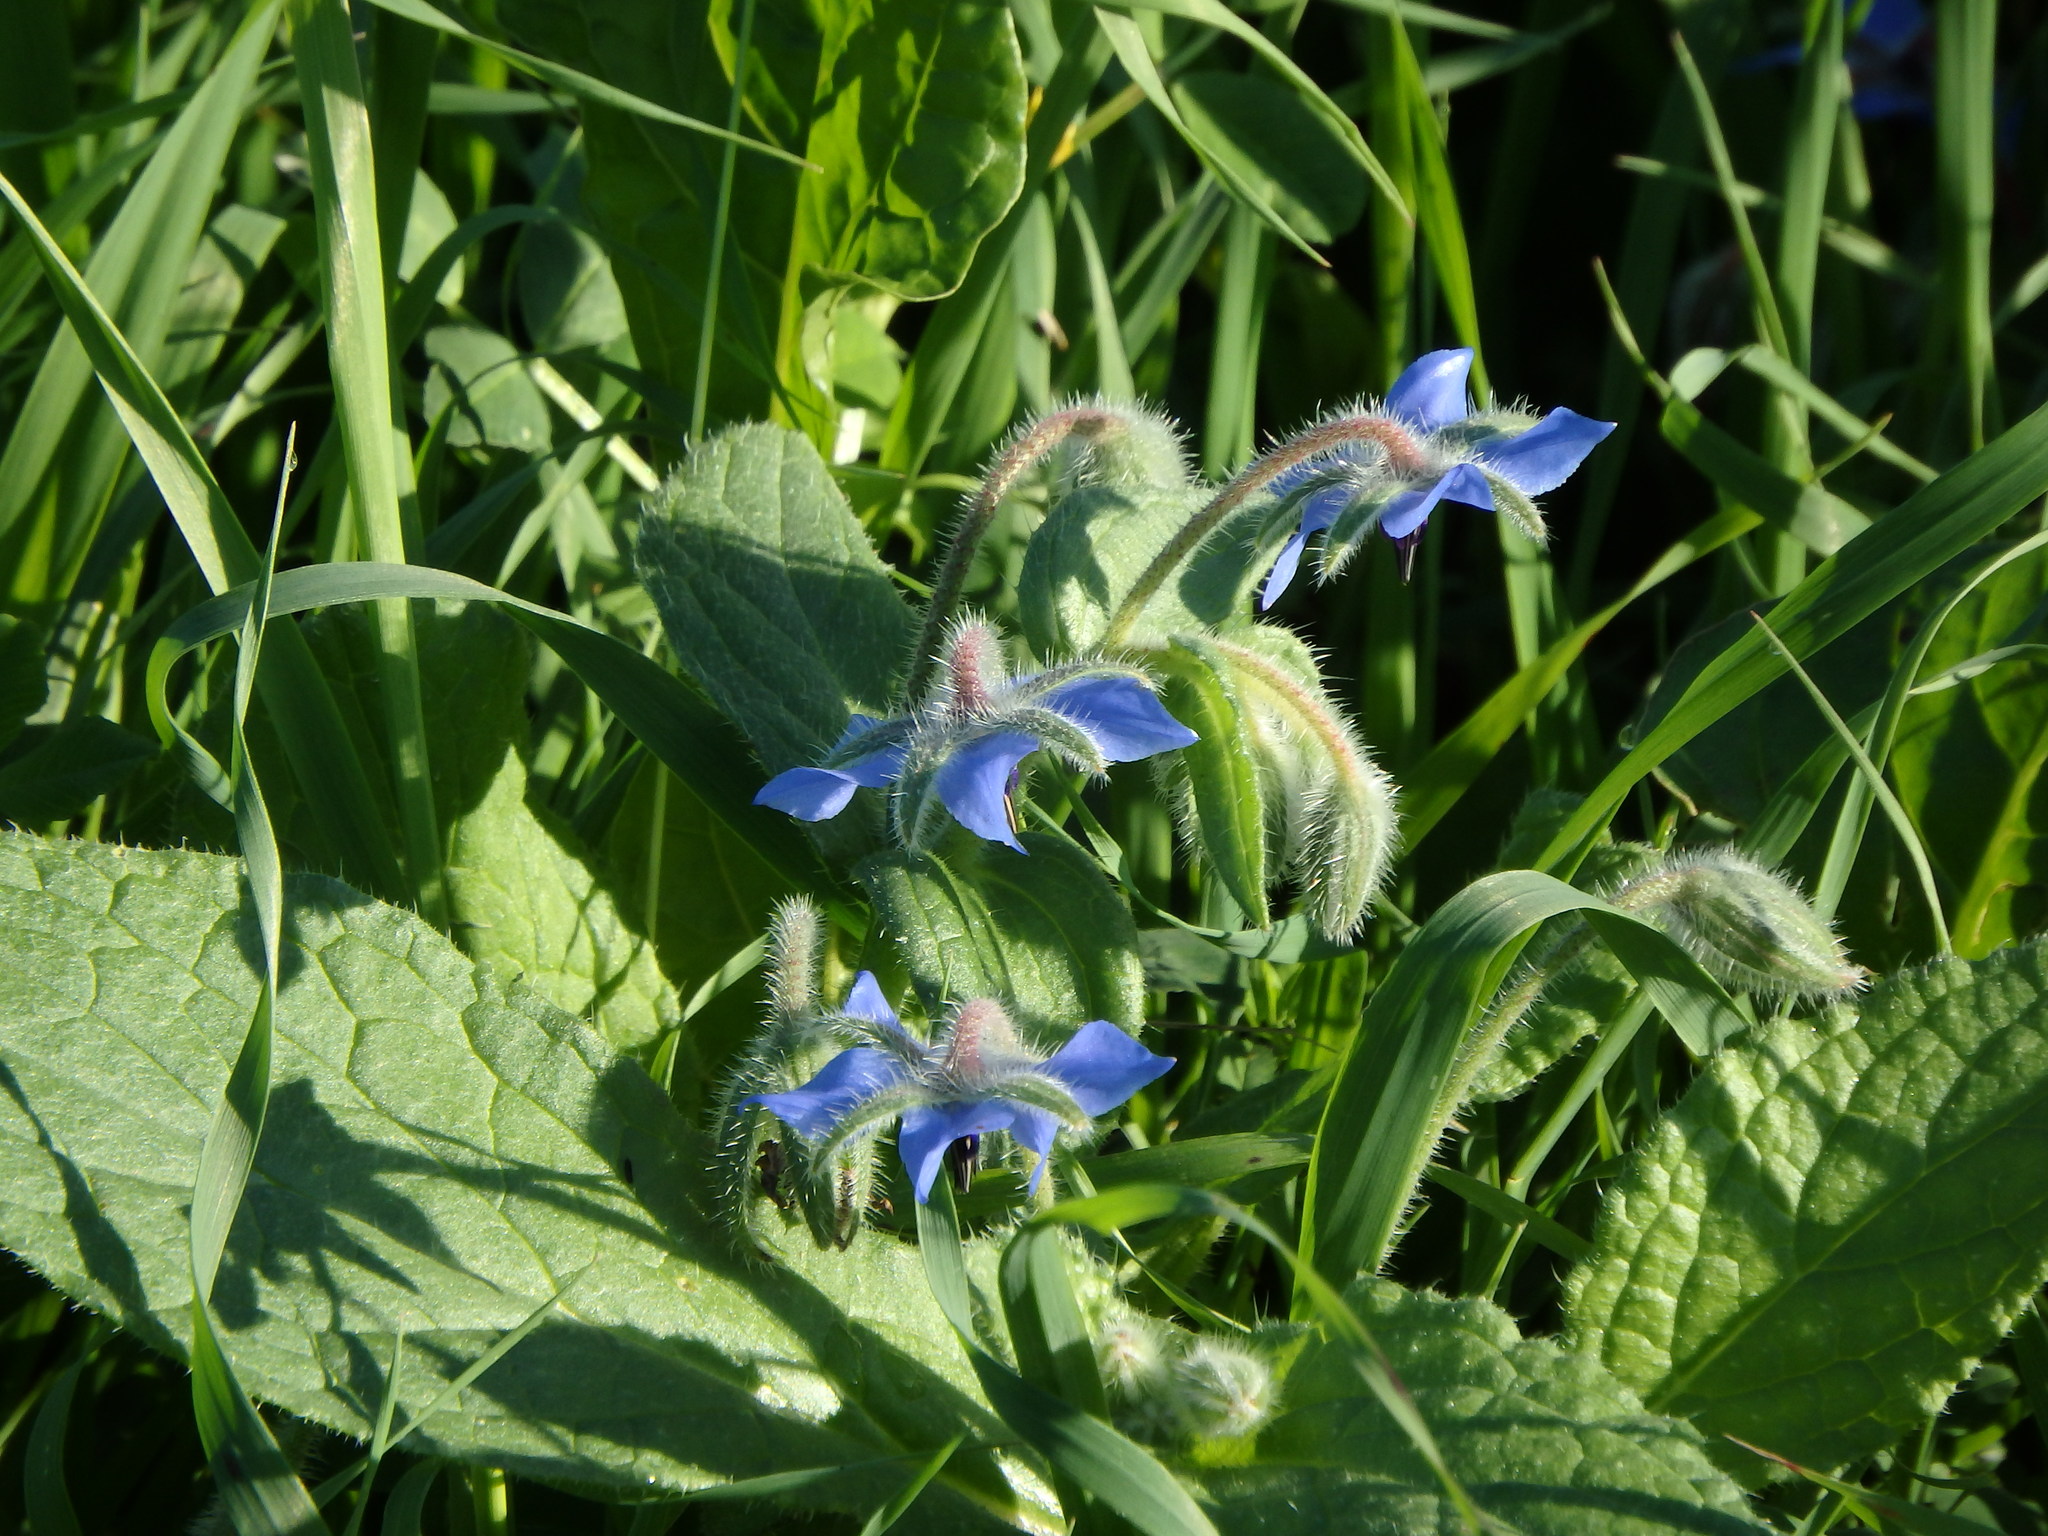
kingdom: Plantae
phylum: Tracheophyta
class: Magnoliopsida
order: Boraginales
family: Boraginaceae
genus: Borago
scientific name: Borago officinalis
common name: Borage
